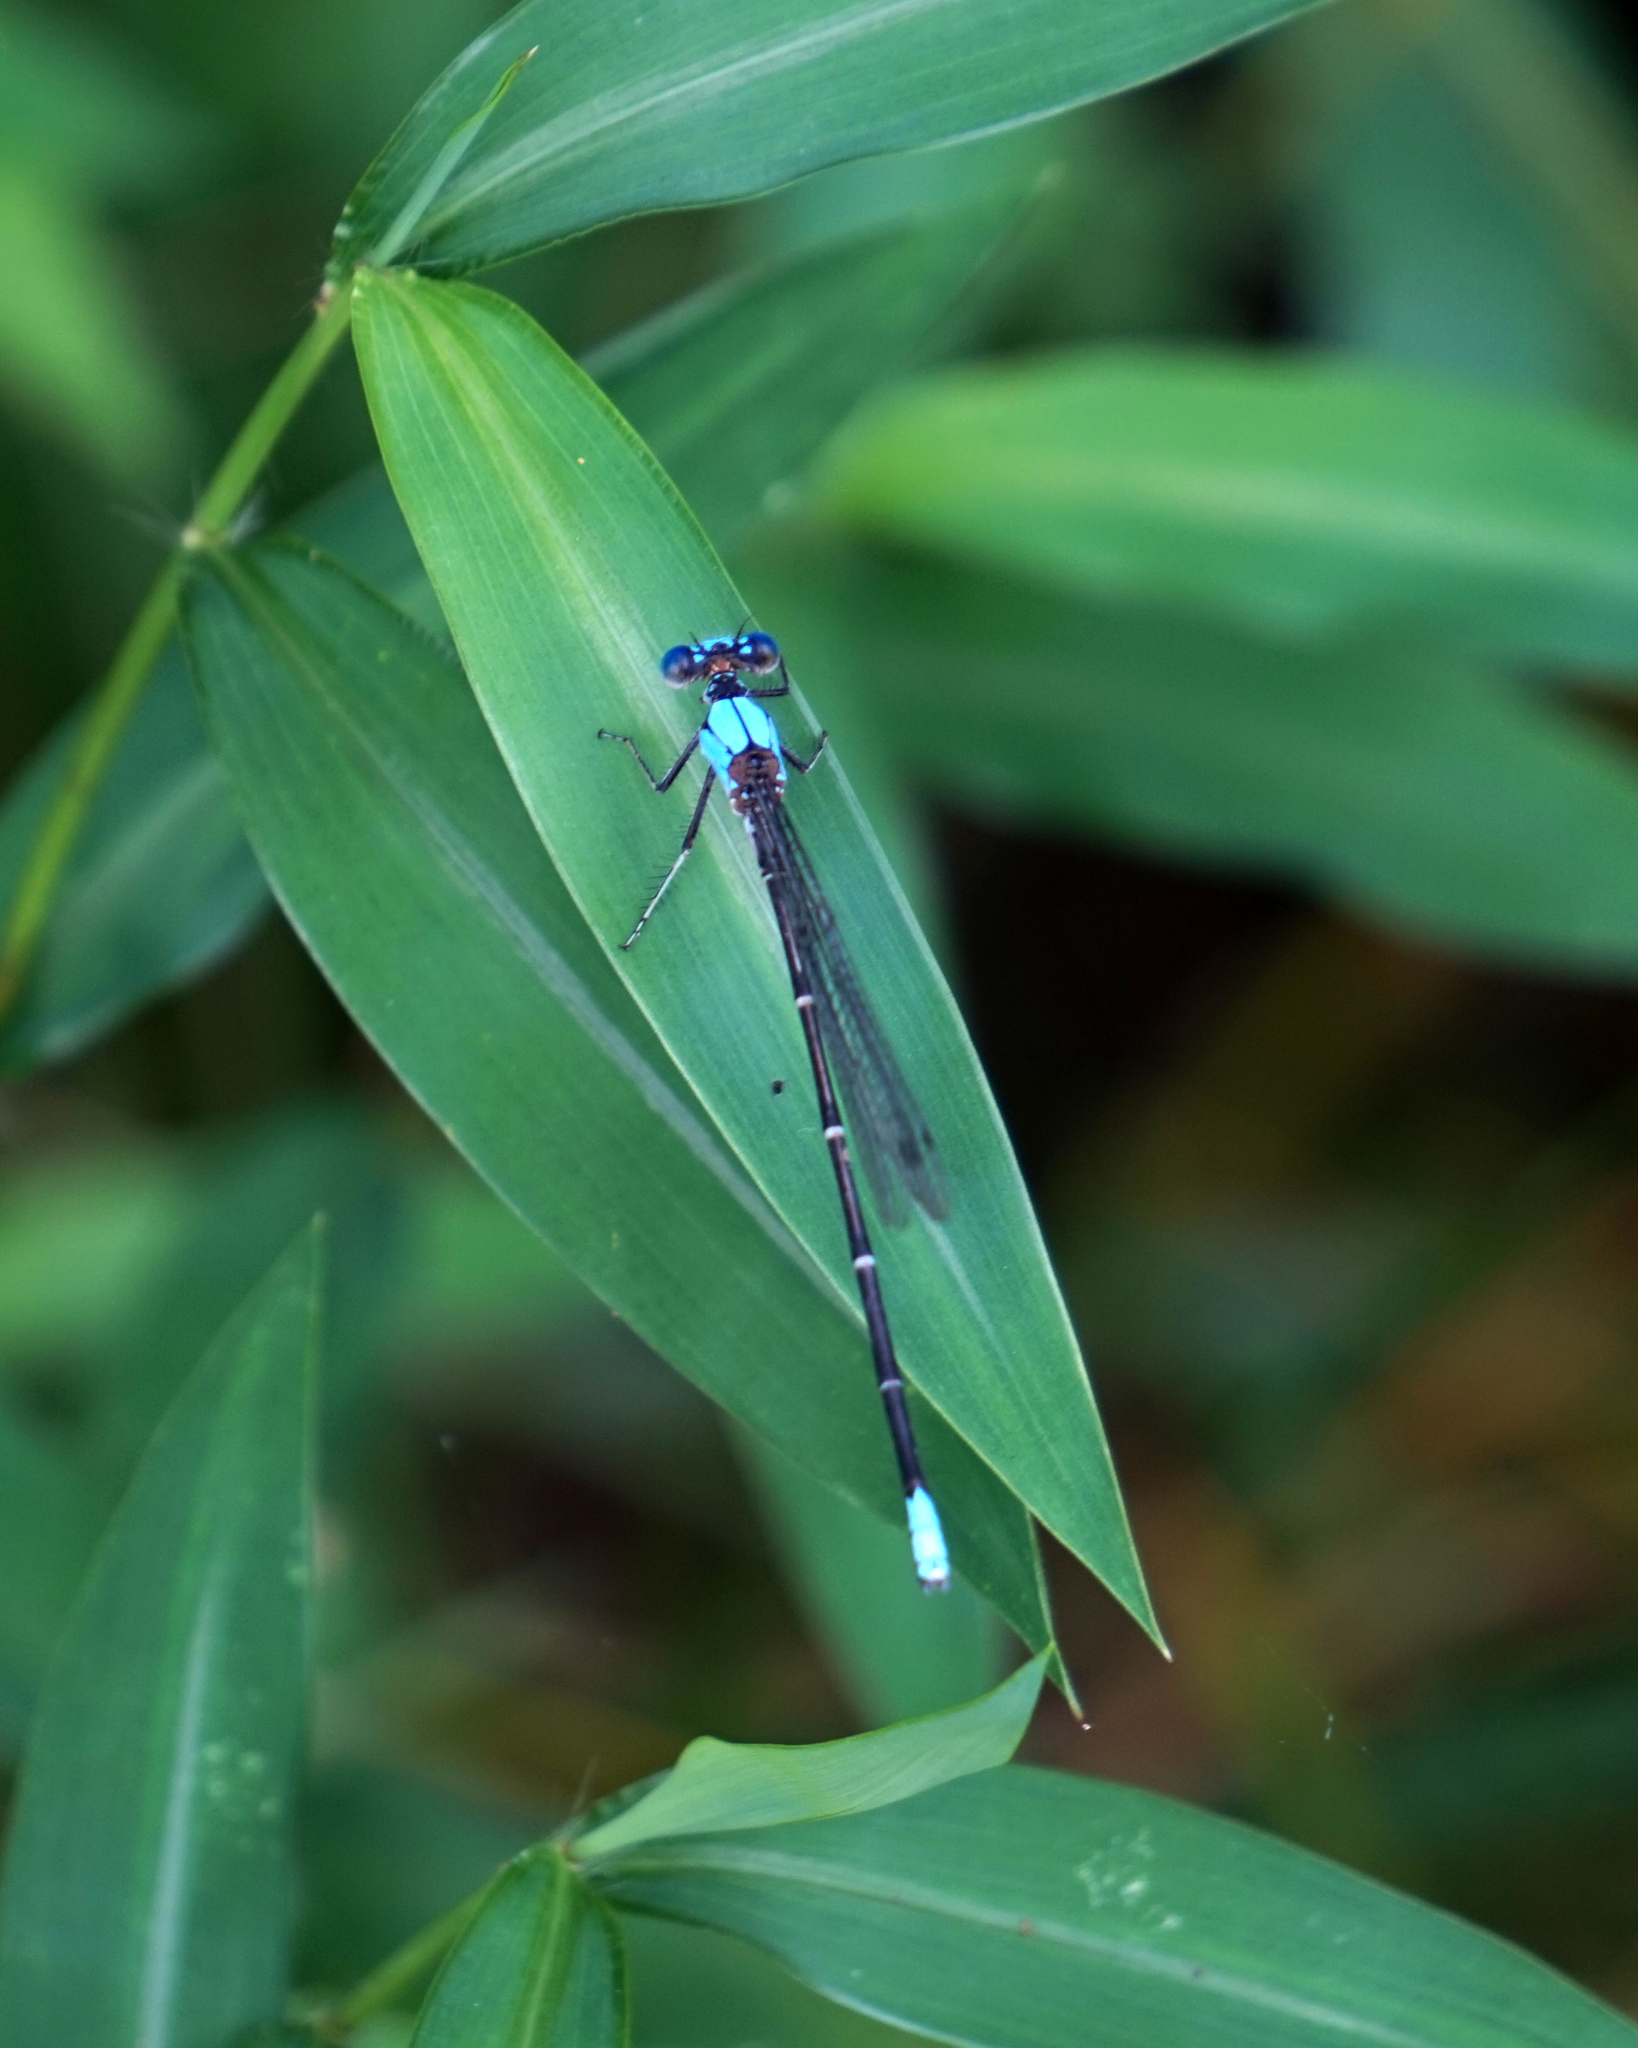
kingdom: Animalia
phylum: Arthropoda
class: Insecta
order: Odonata
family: Coenagrionidae
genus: Argia
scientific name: Argia apicalis
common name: Blue-fronted dancer
